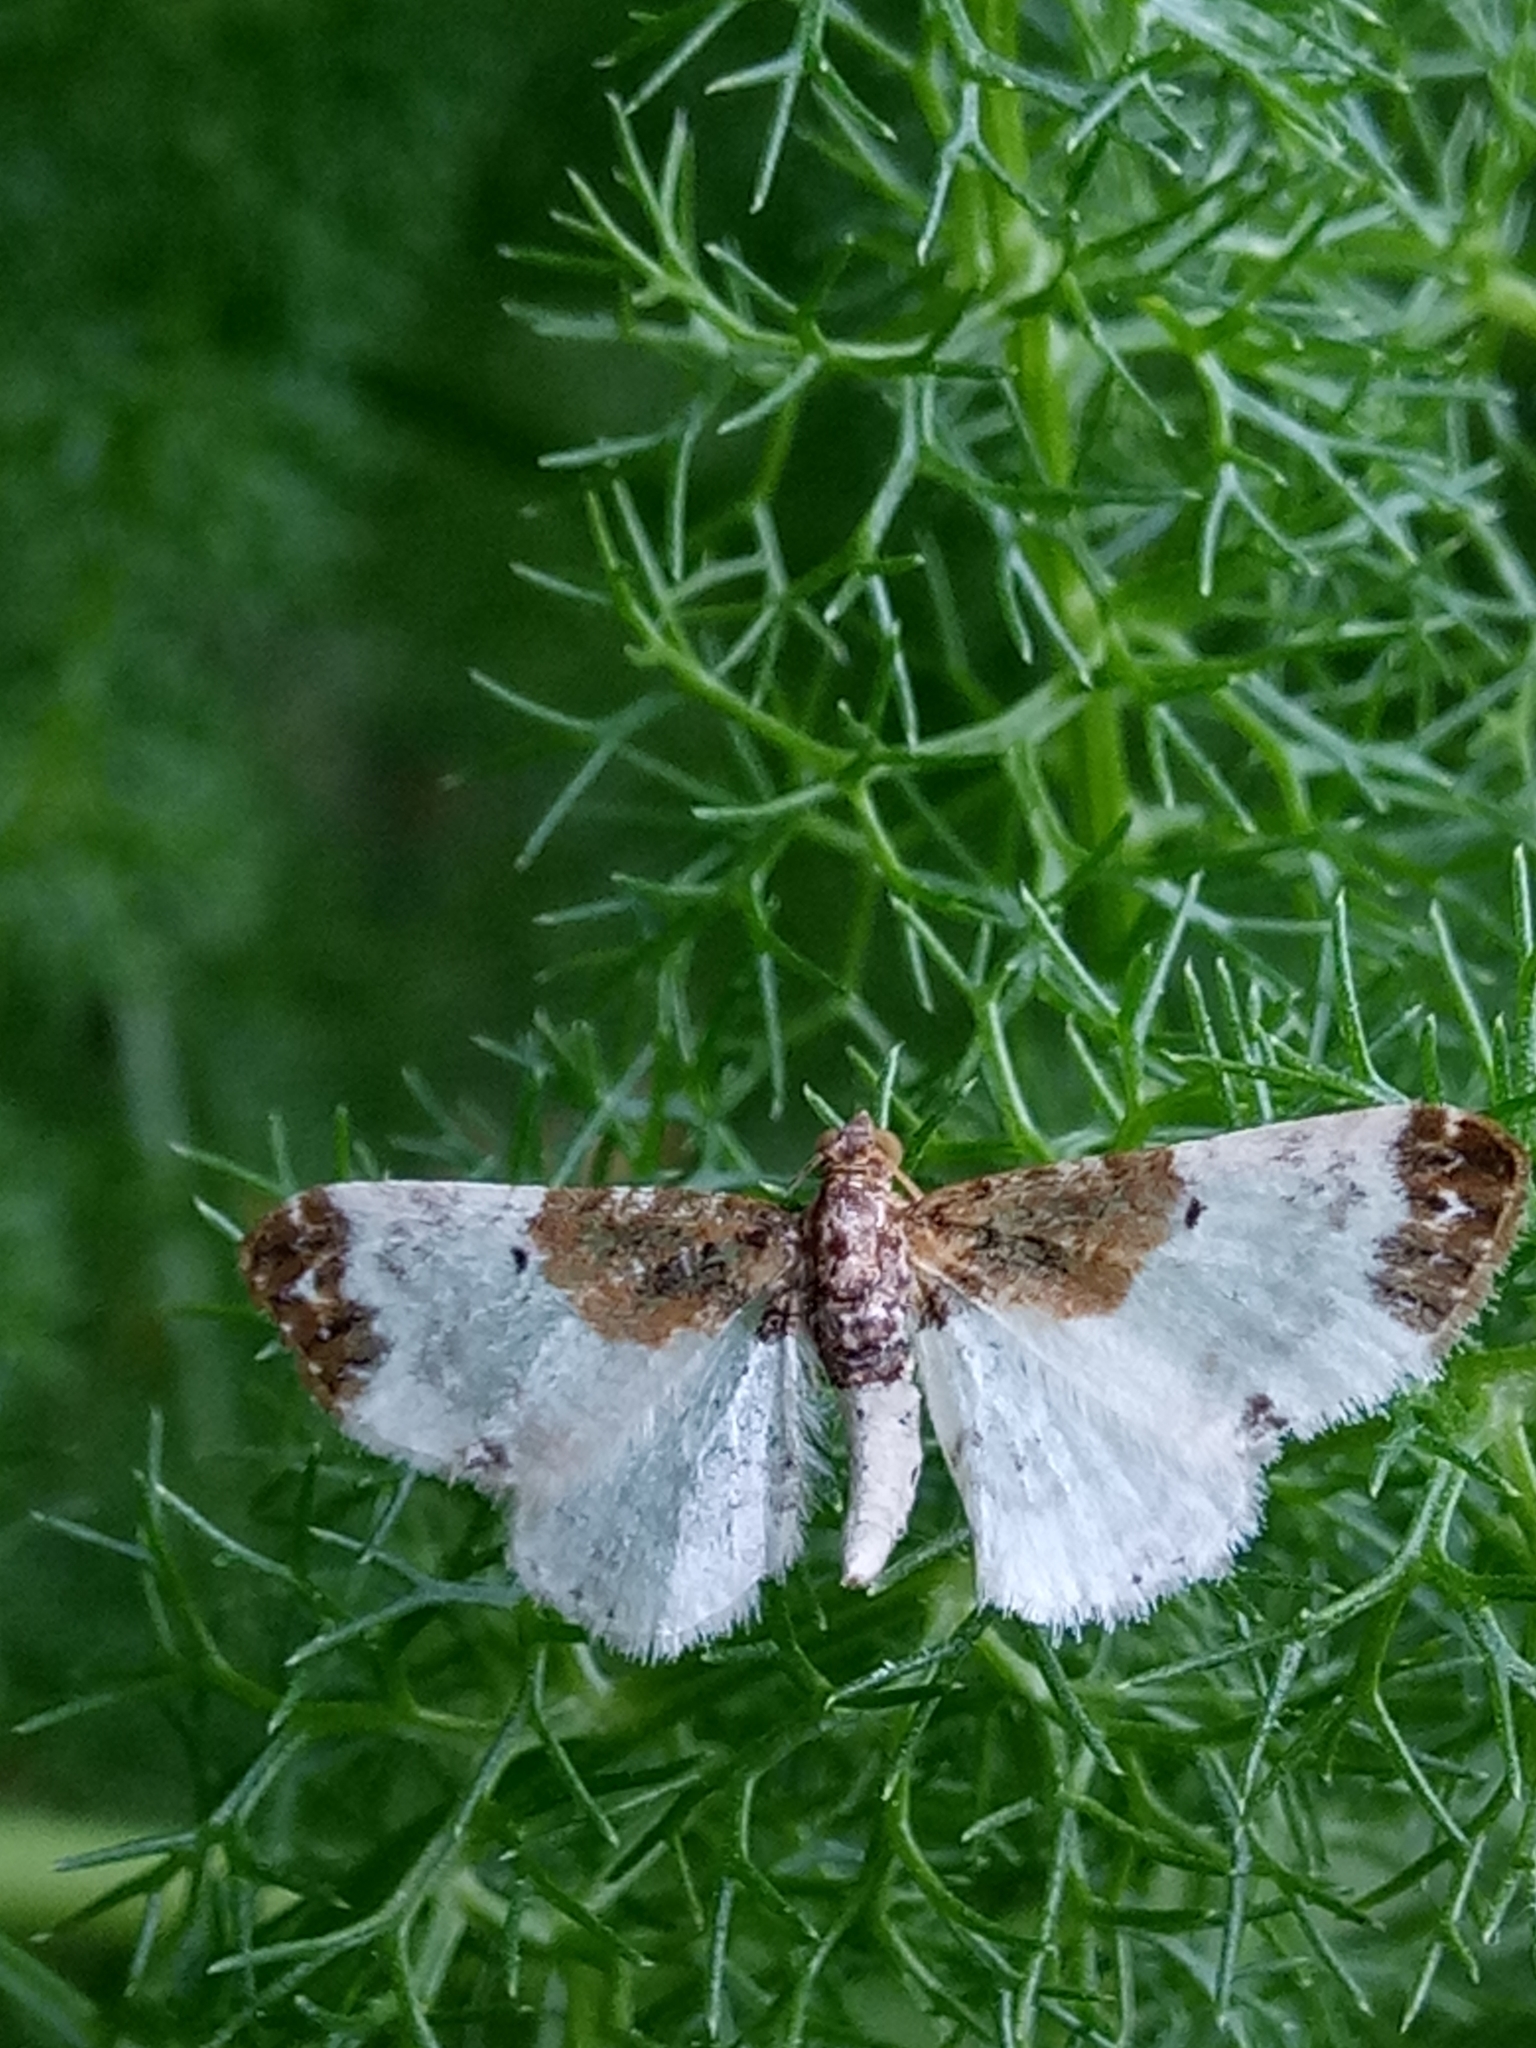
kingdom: Animalia
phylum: Arthropoda
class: Insecta
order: Lepidoptera
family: Geometridae
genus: Eupithecia
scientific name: Eupithecia breviculata
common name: Rusty-shouldered pug
